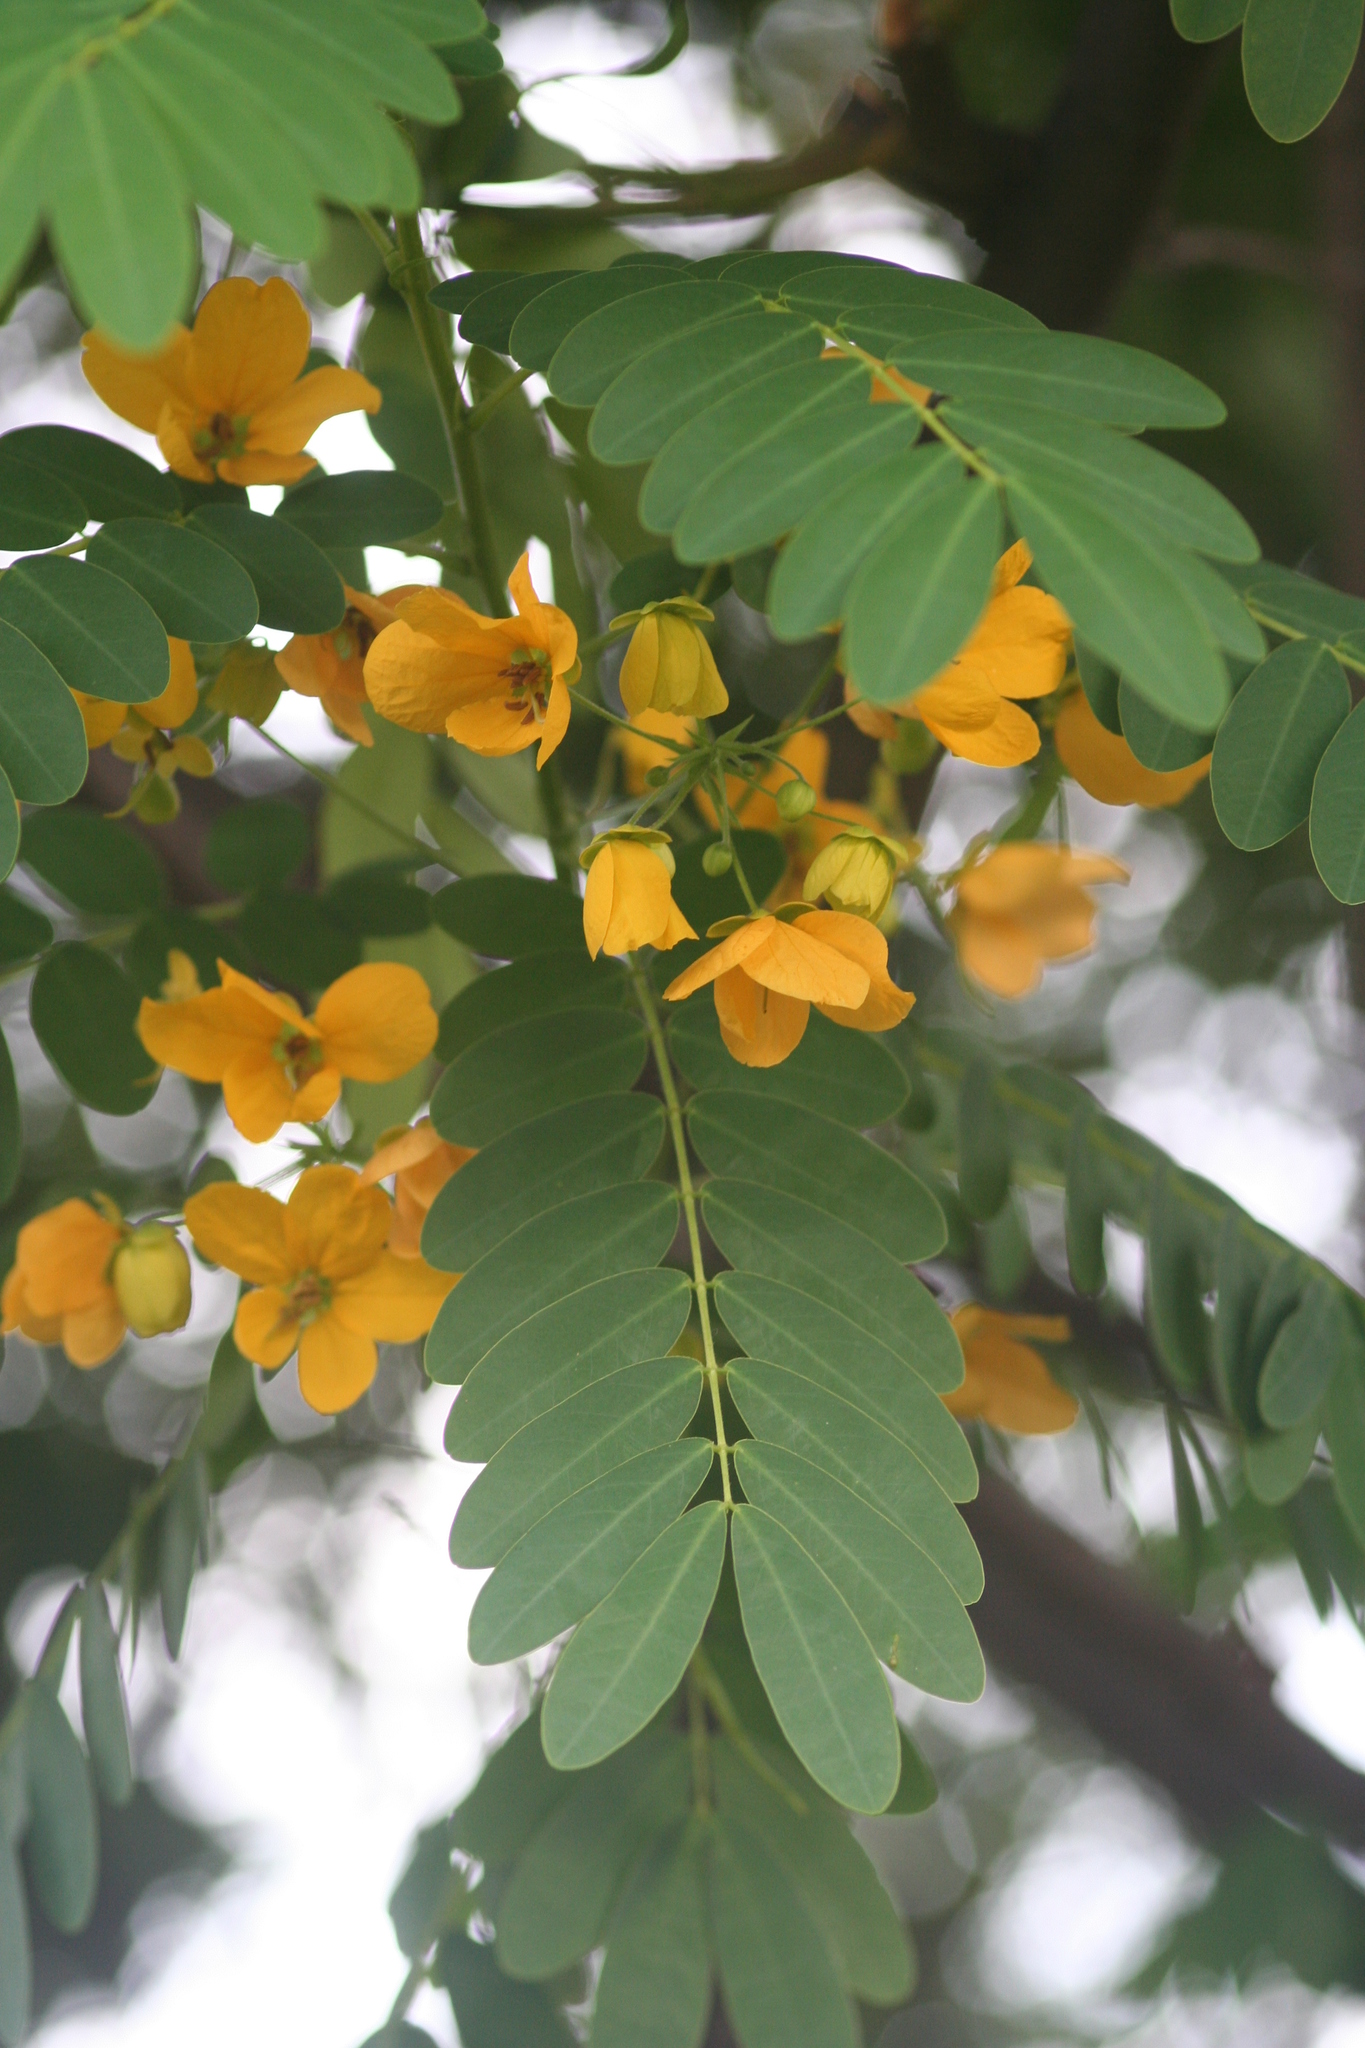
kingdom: Plantae
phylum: Tracheophyta
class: Magnoliopsida
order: Fabales
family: Fabaceae
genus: Senna
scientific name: Senna surattensis
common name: Glossy shower
